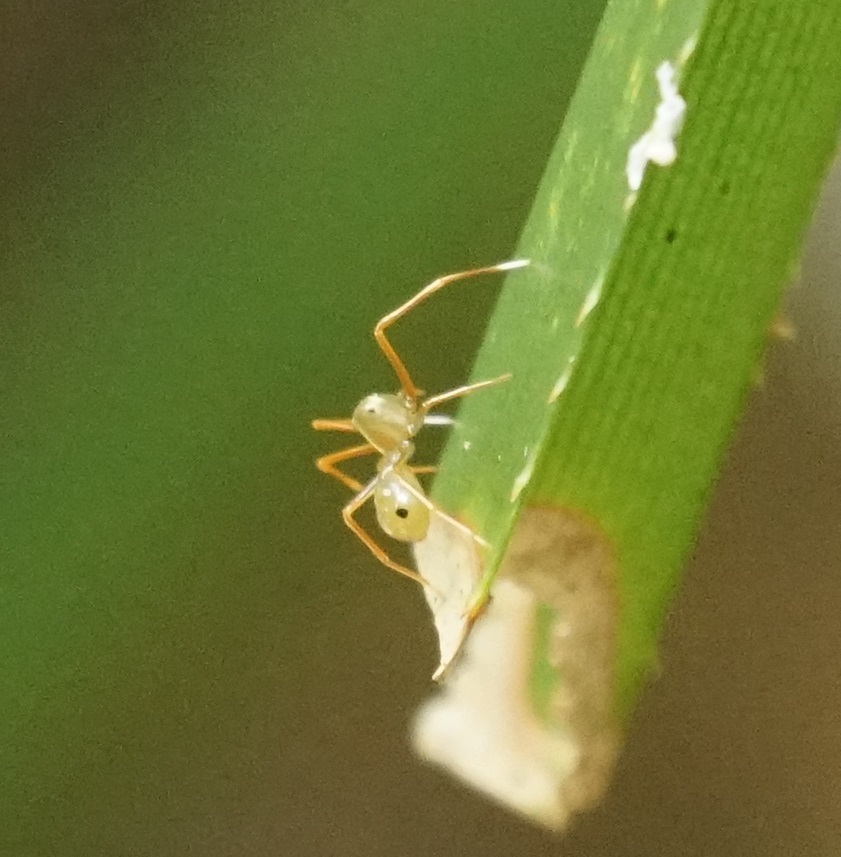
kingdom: Animalia
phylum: Arthropoda
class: Arachnida
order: Araneae
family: Thomisidae
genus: Amyciaea
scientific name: Amyciaea albomaculata
